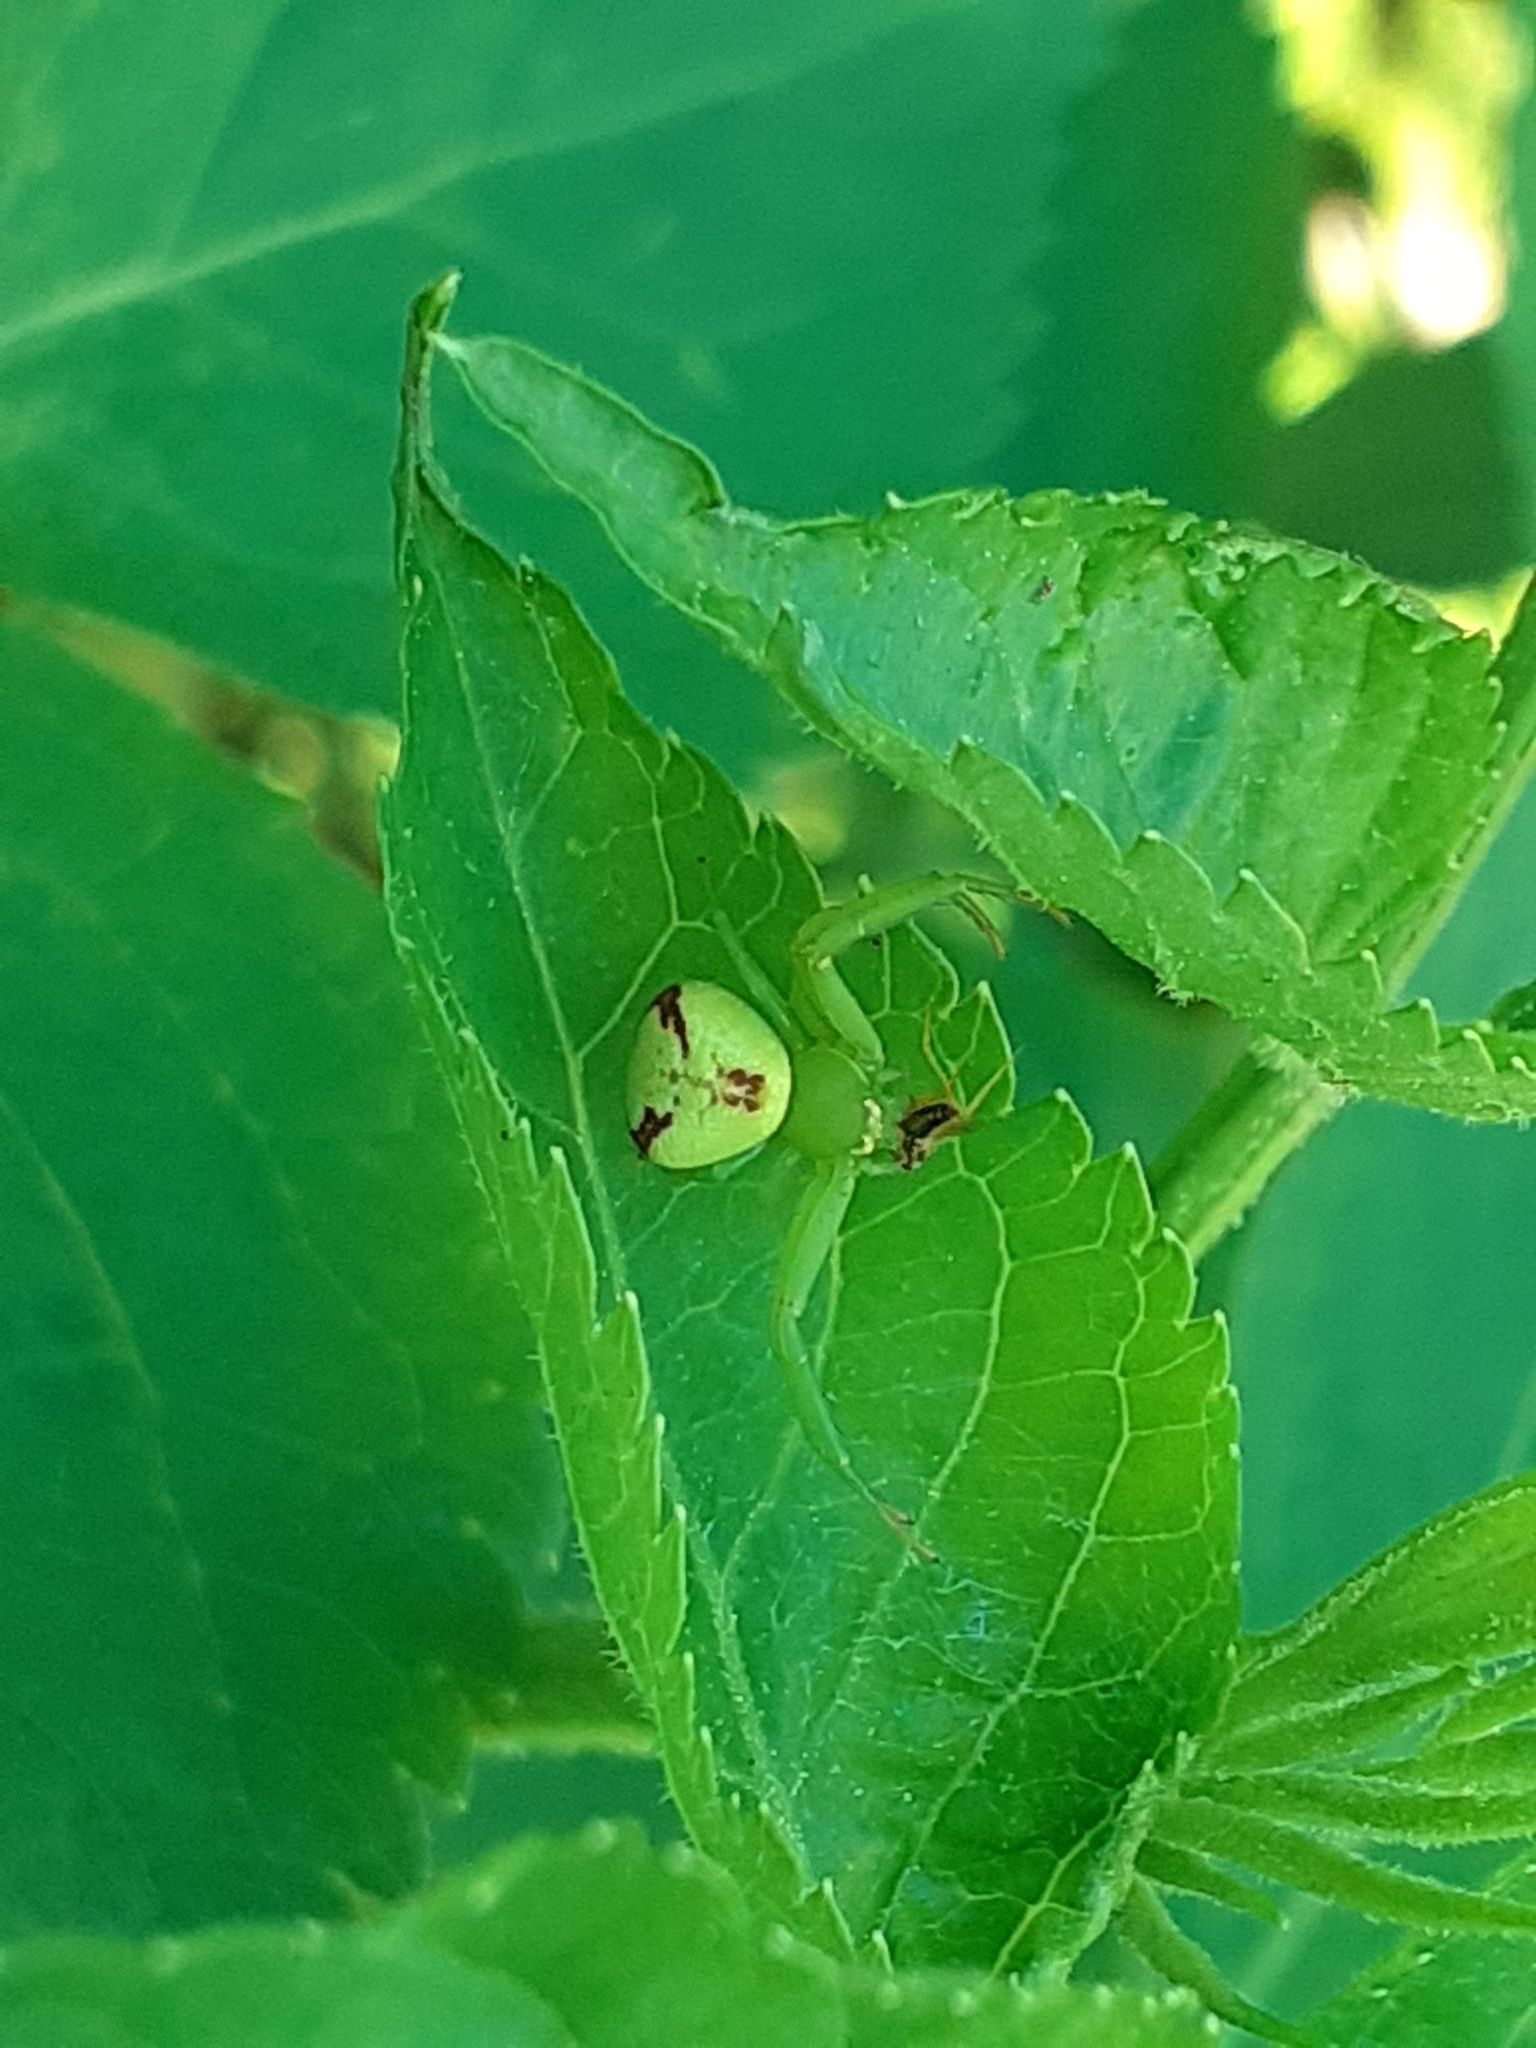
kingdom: Animalia
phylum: Arthropoda
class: Arachnida
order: Araneae
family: Thomisidae
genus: Ebrechtella
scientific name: Ebrechtella tricuspidata
